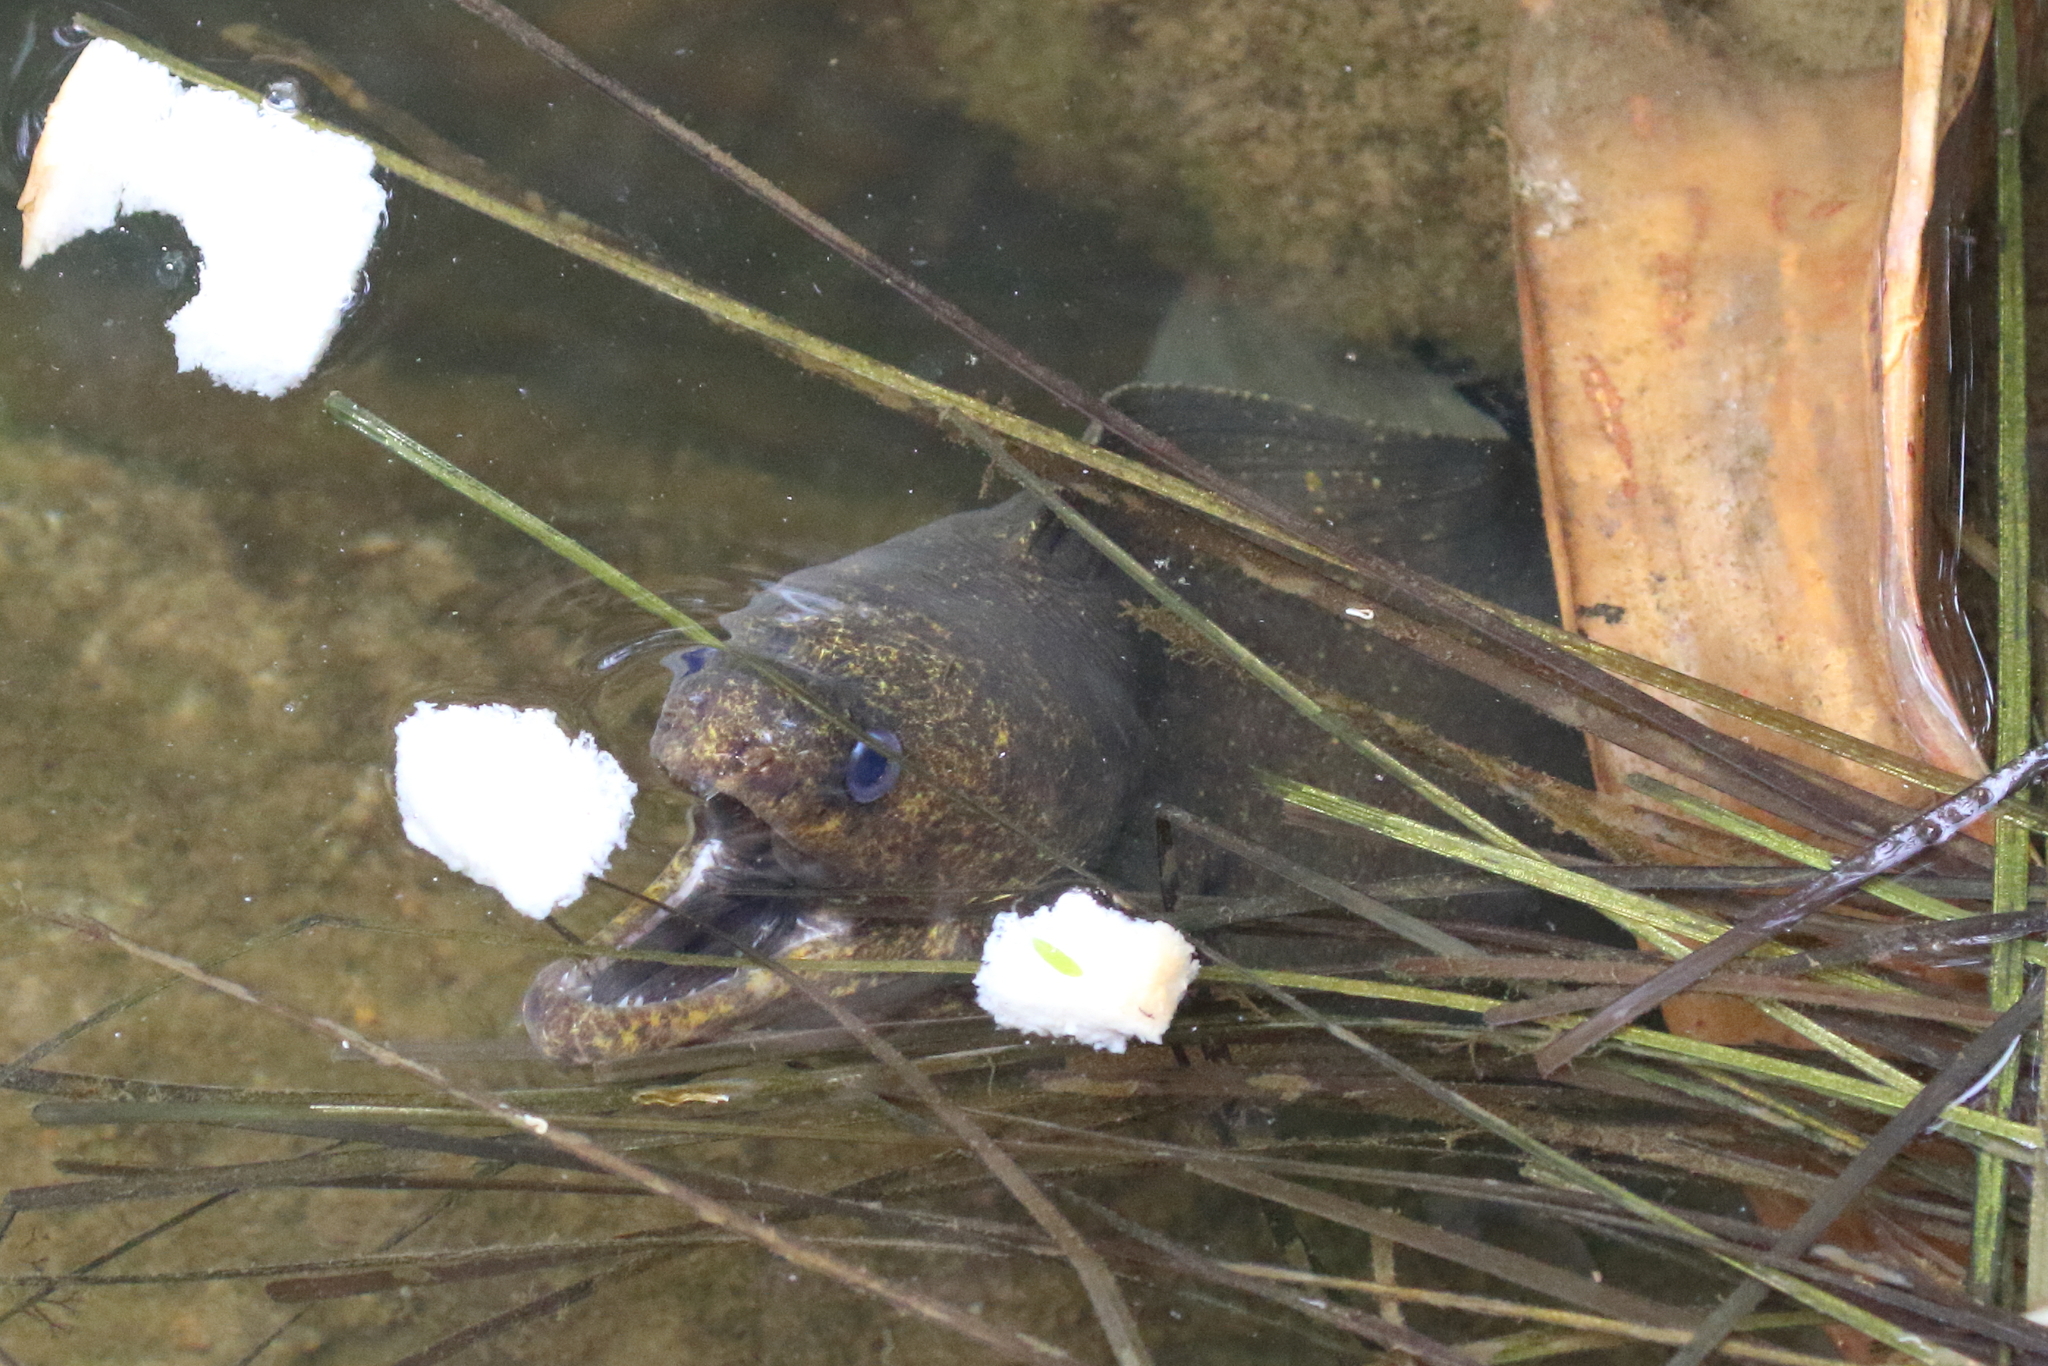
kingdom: Animalia
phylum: Chordata
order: Anguilliformes
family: Muraenidae
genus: Gymnothorax
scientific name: Gymnothorax pseudothyrsoideus
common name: Highfin moray
